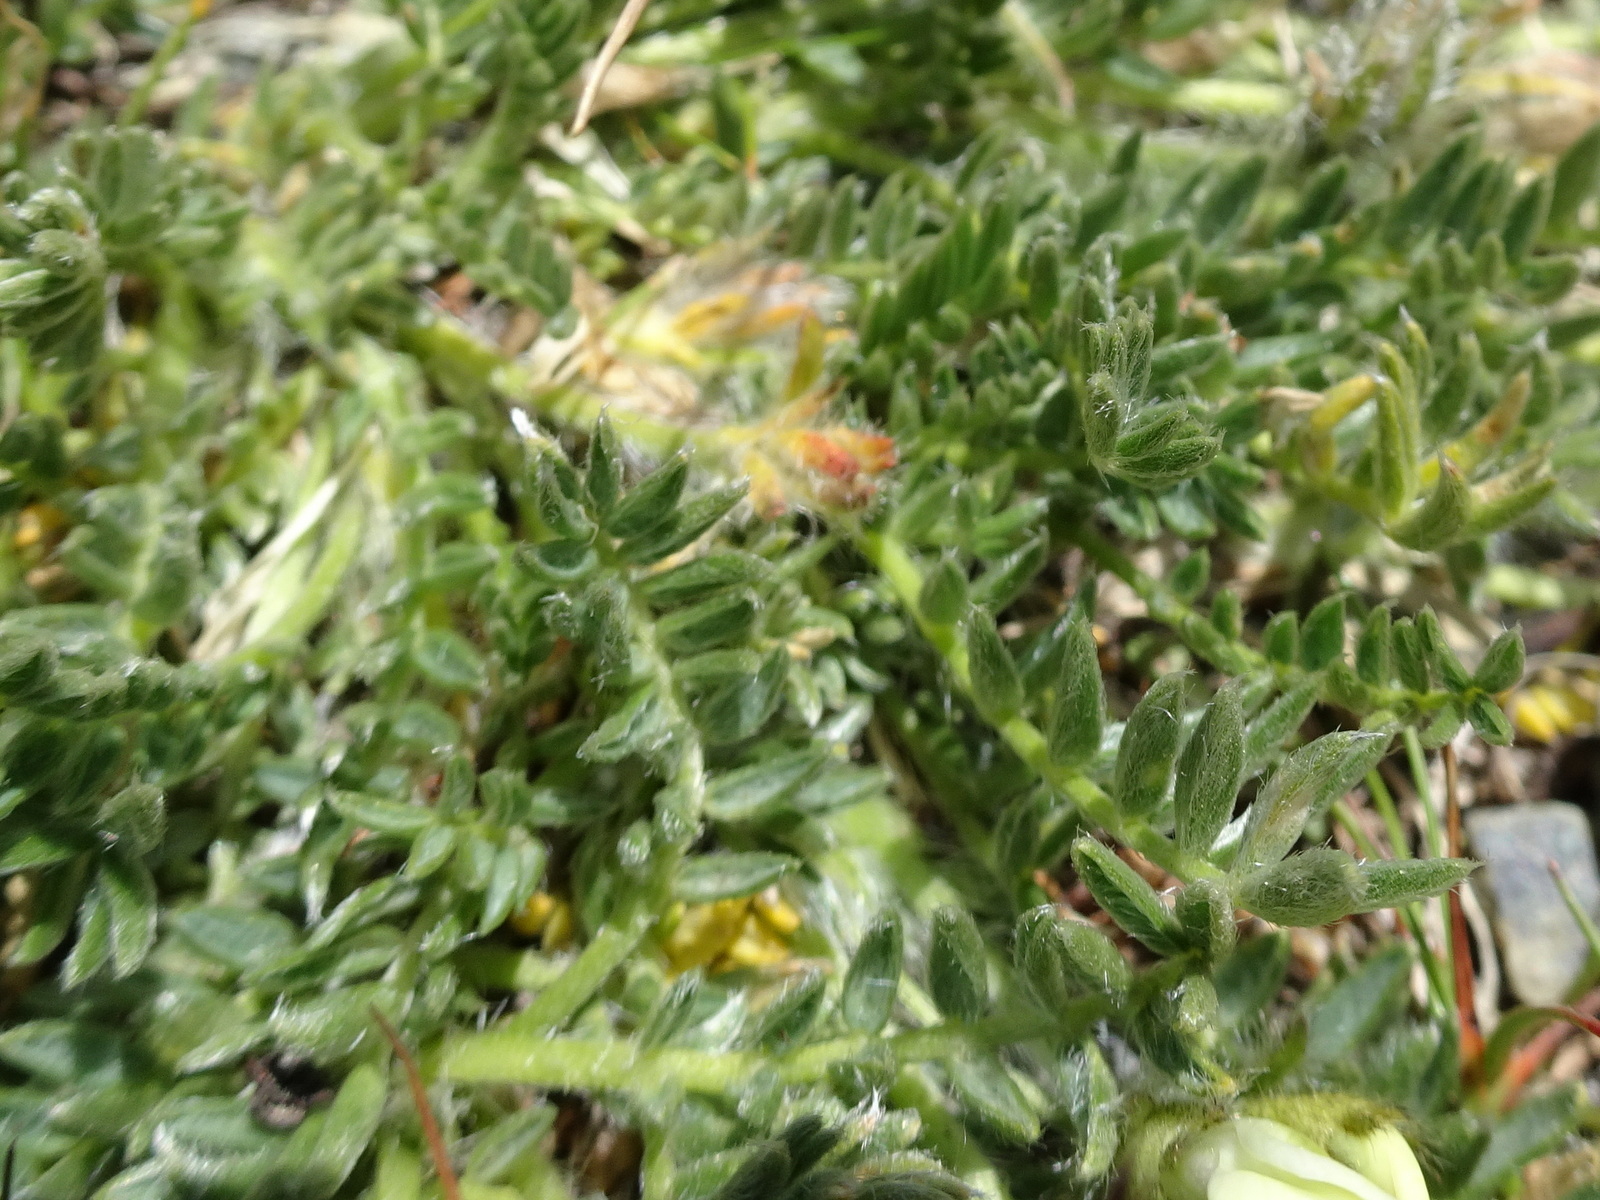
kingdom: Plantae
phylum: Tracheophyta
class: Magnoliopsida
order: Fabales
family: Fabaceae
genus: Oxytropis
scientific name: Oxytropis campestris
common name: Field locoweed
